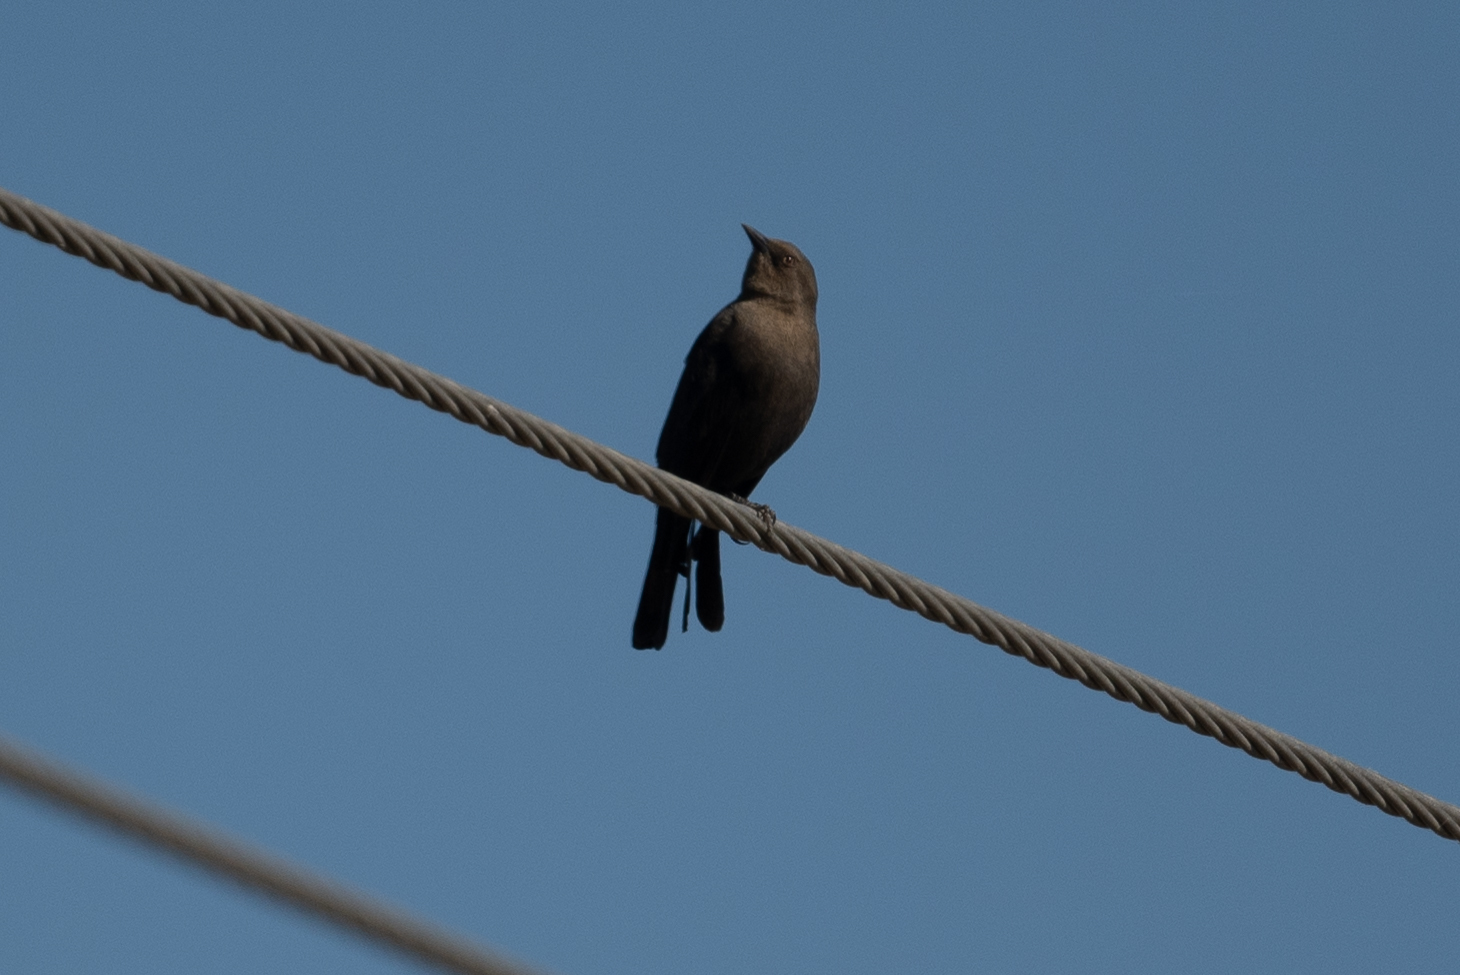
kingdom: Animalia
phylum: Chordata
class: Aves
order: Passeriformes
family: Icteridae
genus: Euphagus
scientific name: Euphagus cyanocephalus
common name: Brewer's blackbird
